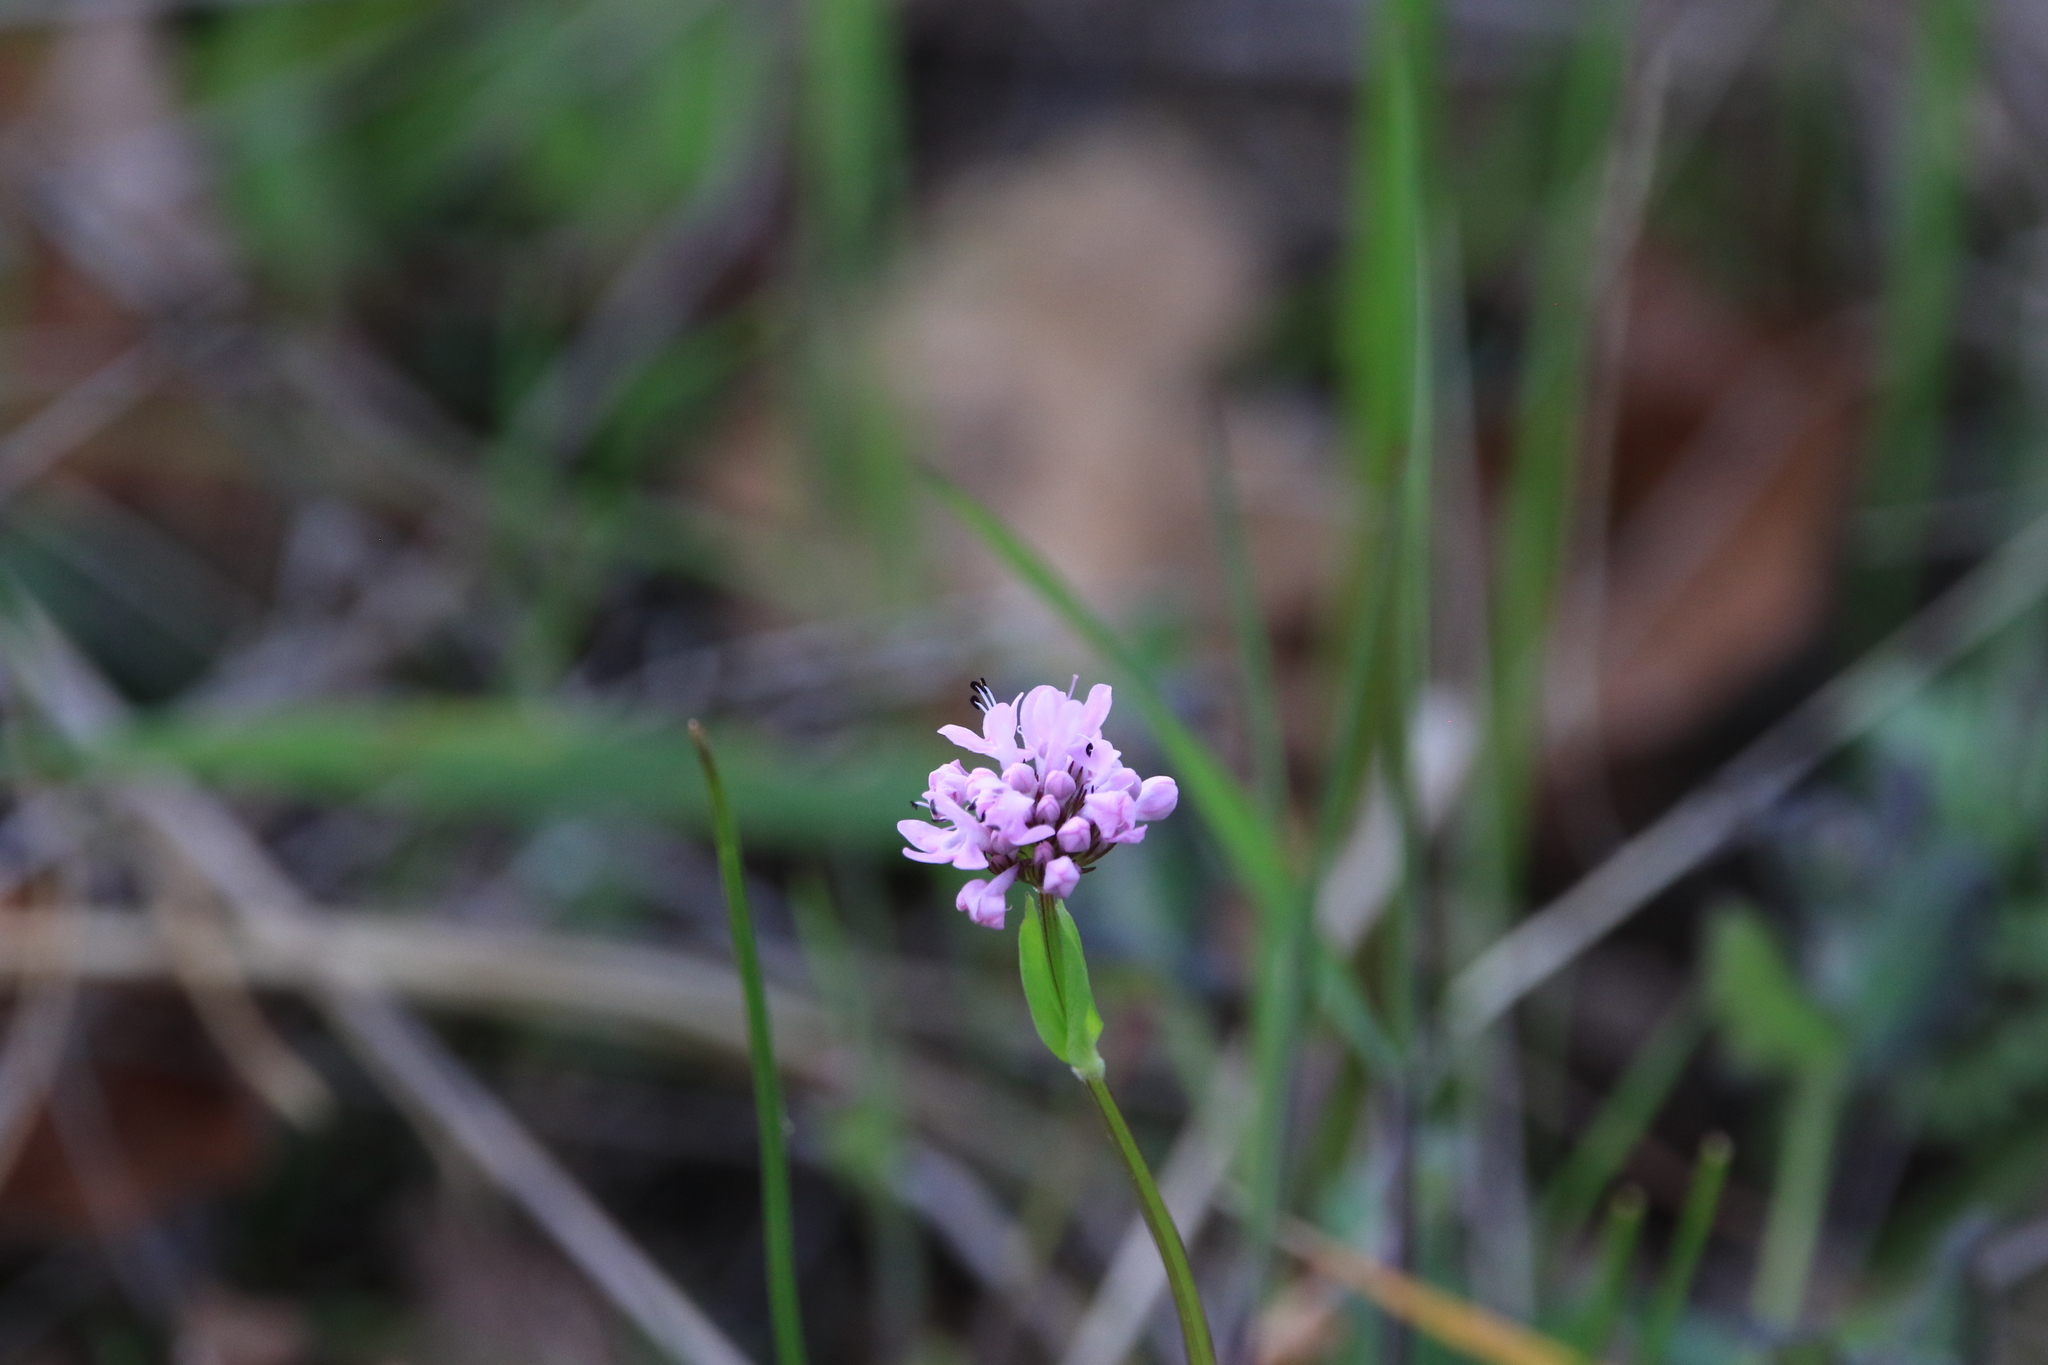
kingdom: Plantae
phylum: Tracheophyta
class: Magnoliopsida
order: Dipsacales
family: Caprifoliaceae
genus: Plectritis
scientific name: Plectritis congesta
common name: Pink plectritis
